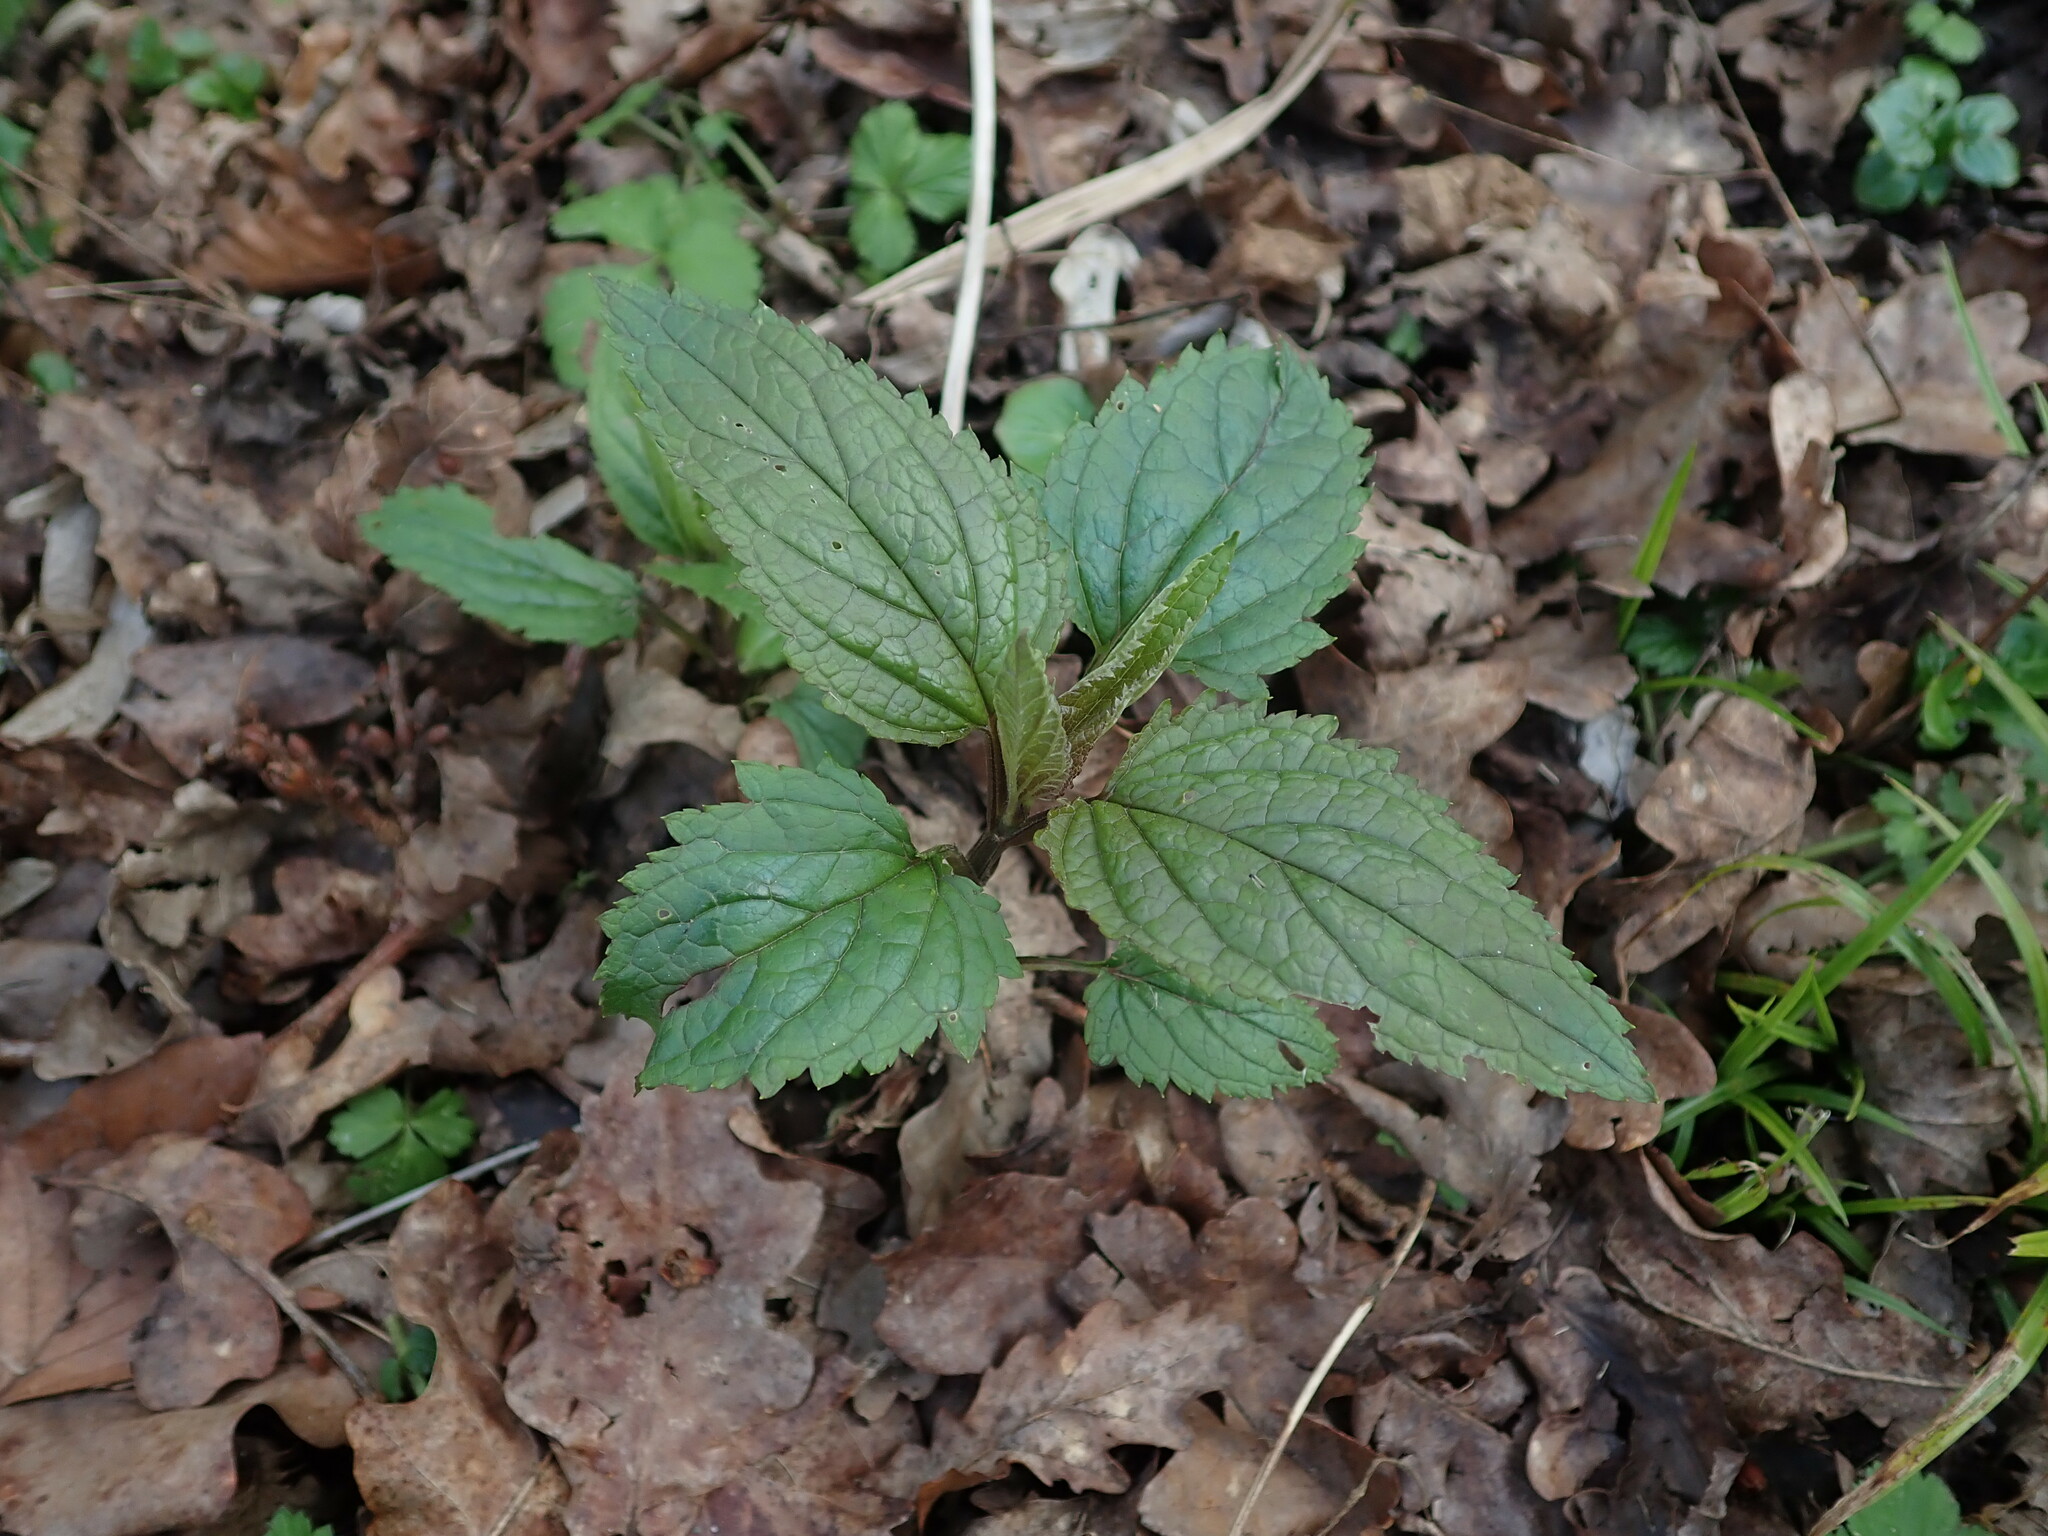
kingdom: Plantae
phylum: Tracheophyta
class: Magnoliopsida
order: Lamiales
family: Scrophulariaceae
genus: Scrophularia
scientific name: Scrophularia nodosa
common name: Common figwort
